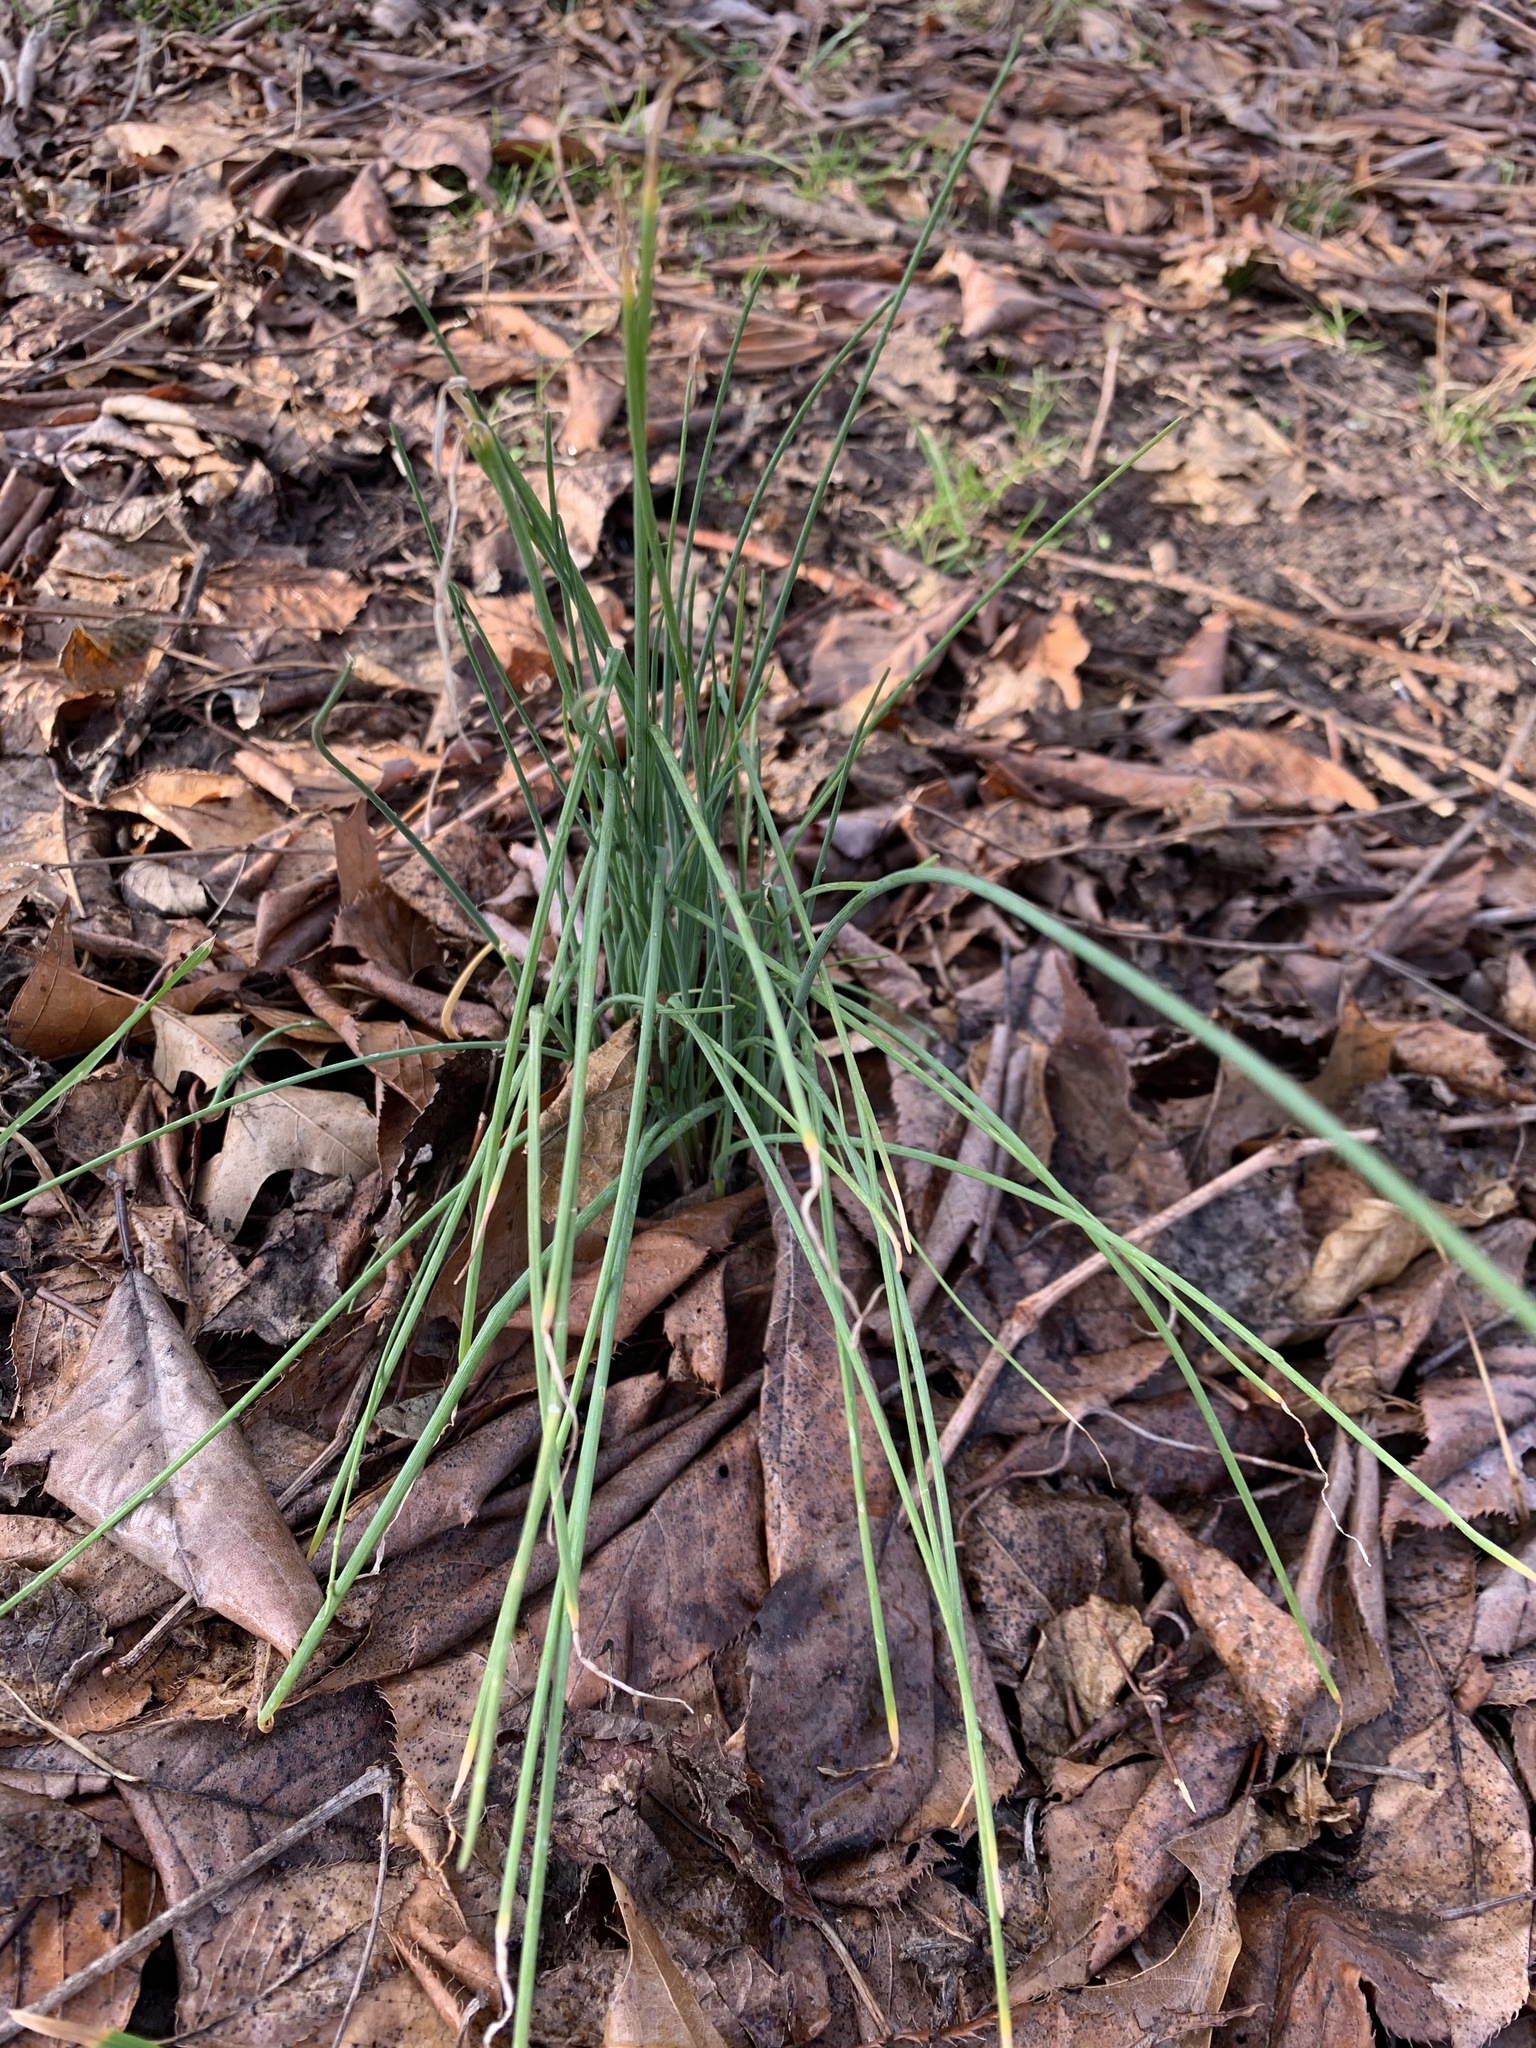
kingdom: Plantae
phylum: Tracheophyta
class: Liliopsida
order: Asparagales
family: Amaryllidaceae
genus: Allium
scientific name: Allium vineale
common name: Crow garlic
